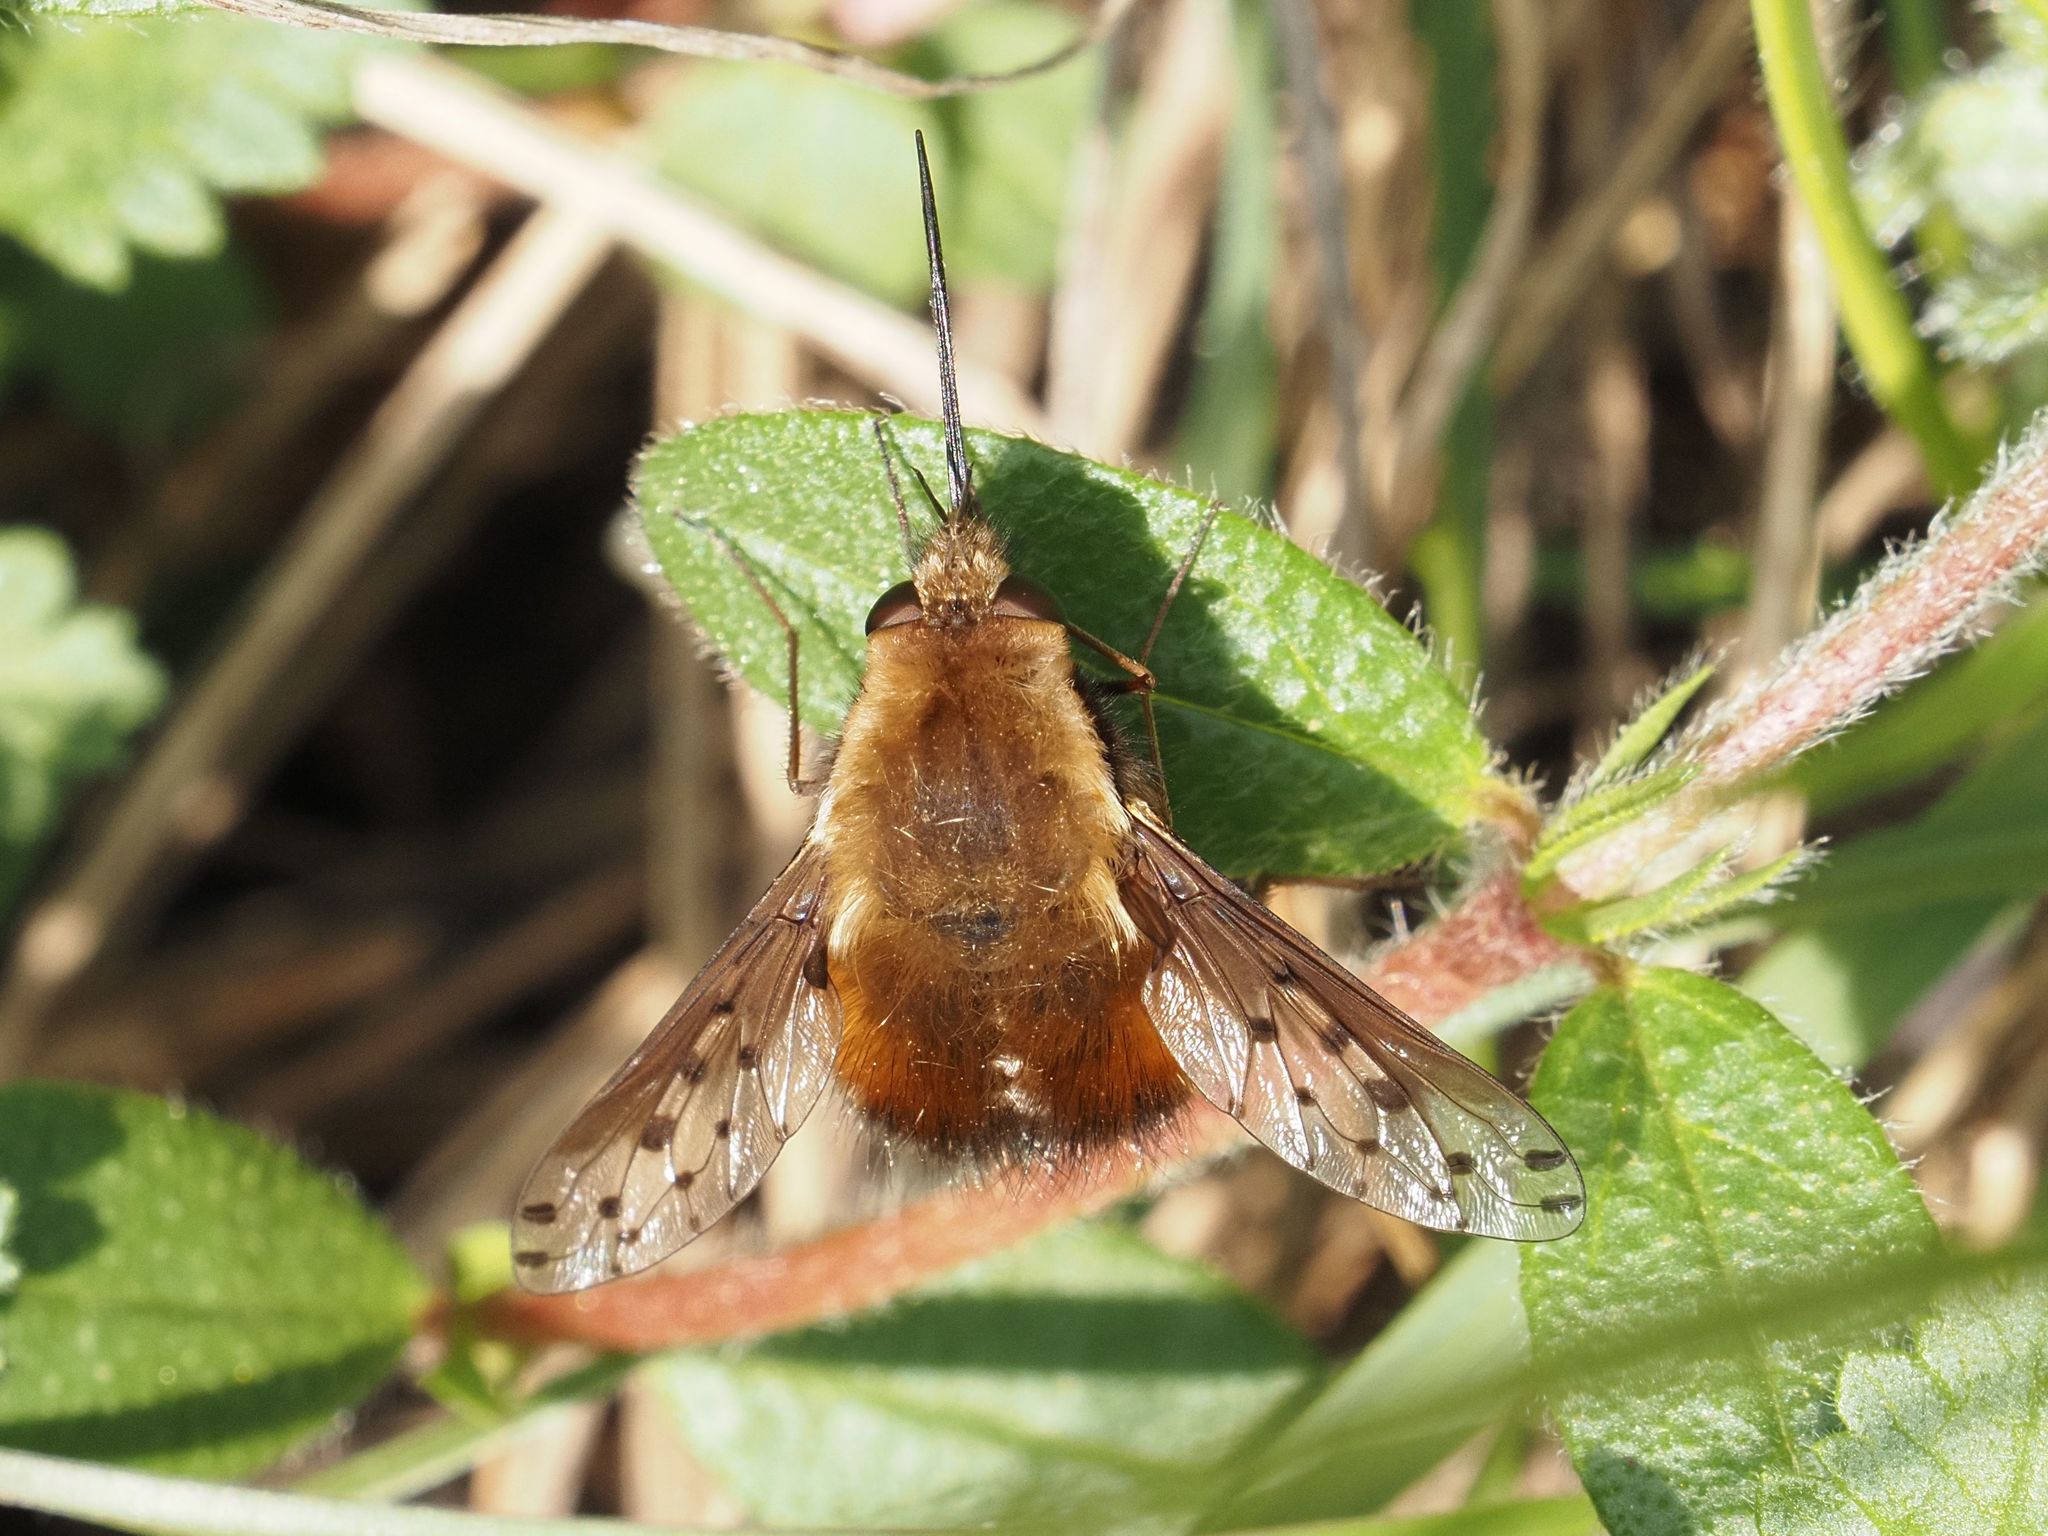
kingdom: Animalia
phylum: Arthropoda
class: Insecta
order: Diptera
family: Bombyliidae
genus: Bombylius
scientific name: Bombylius discolor
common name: Dotted bee-fly
